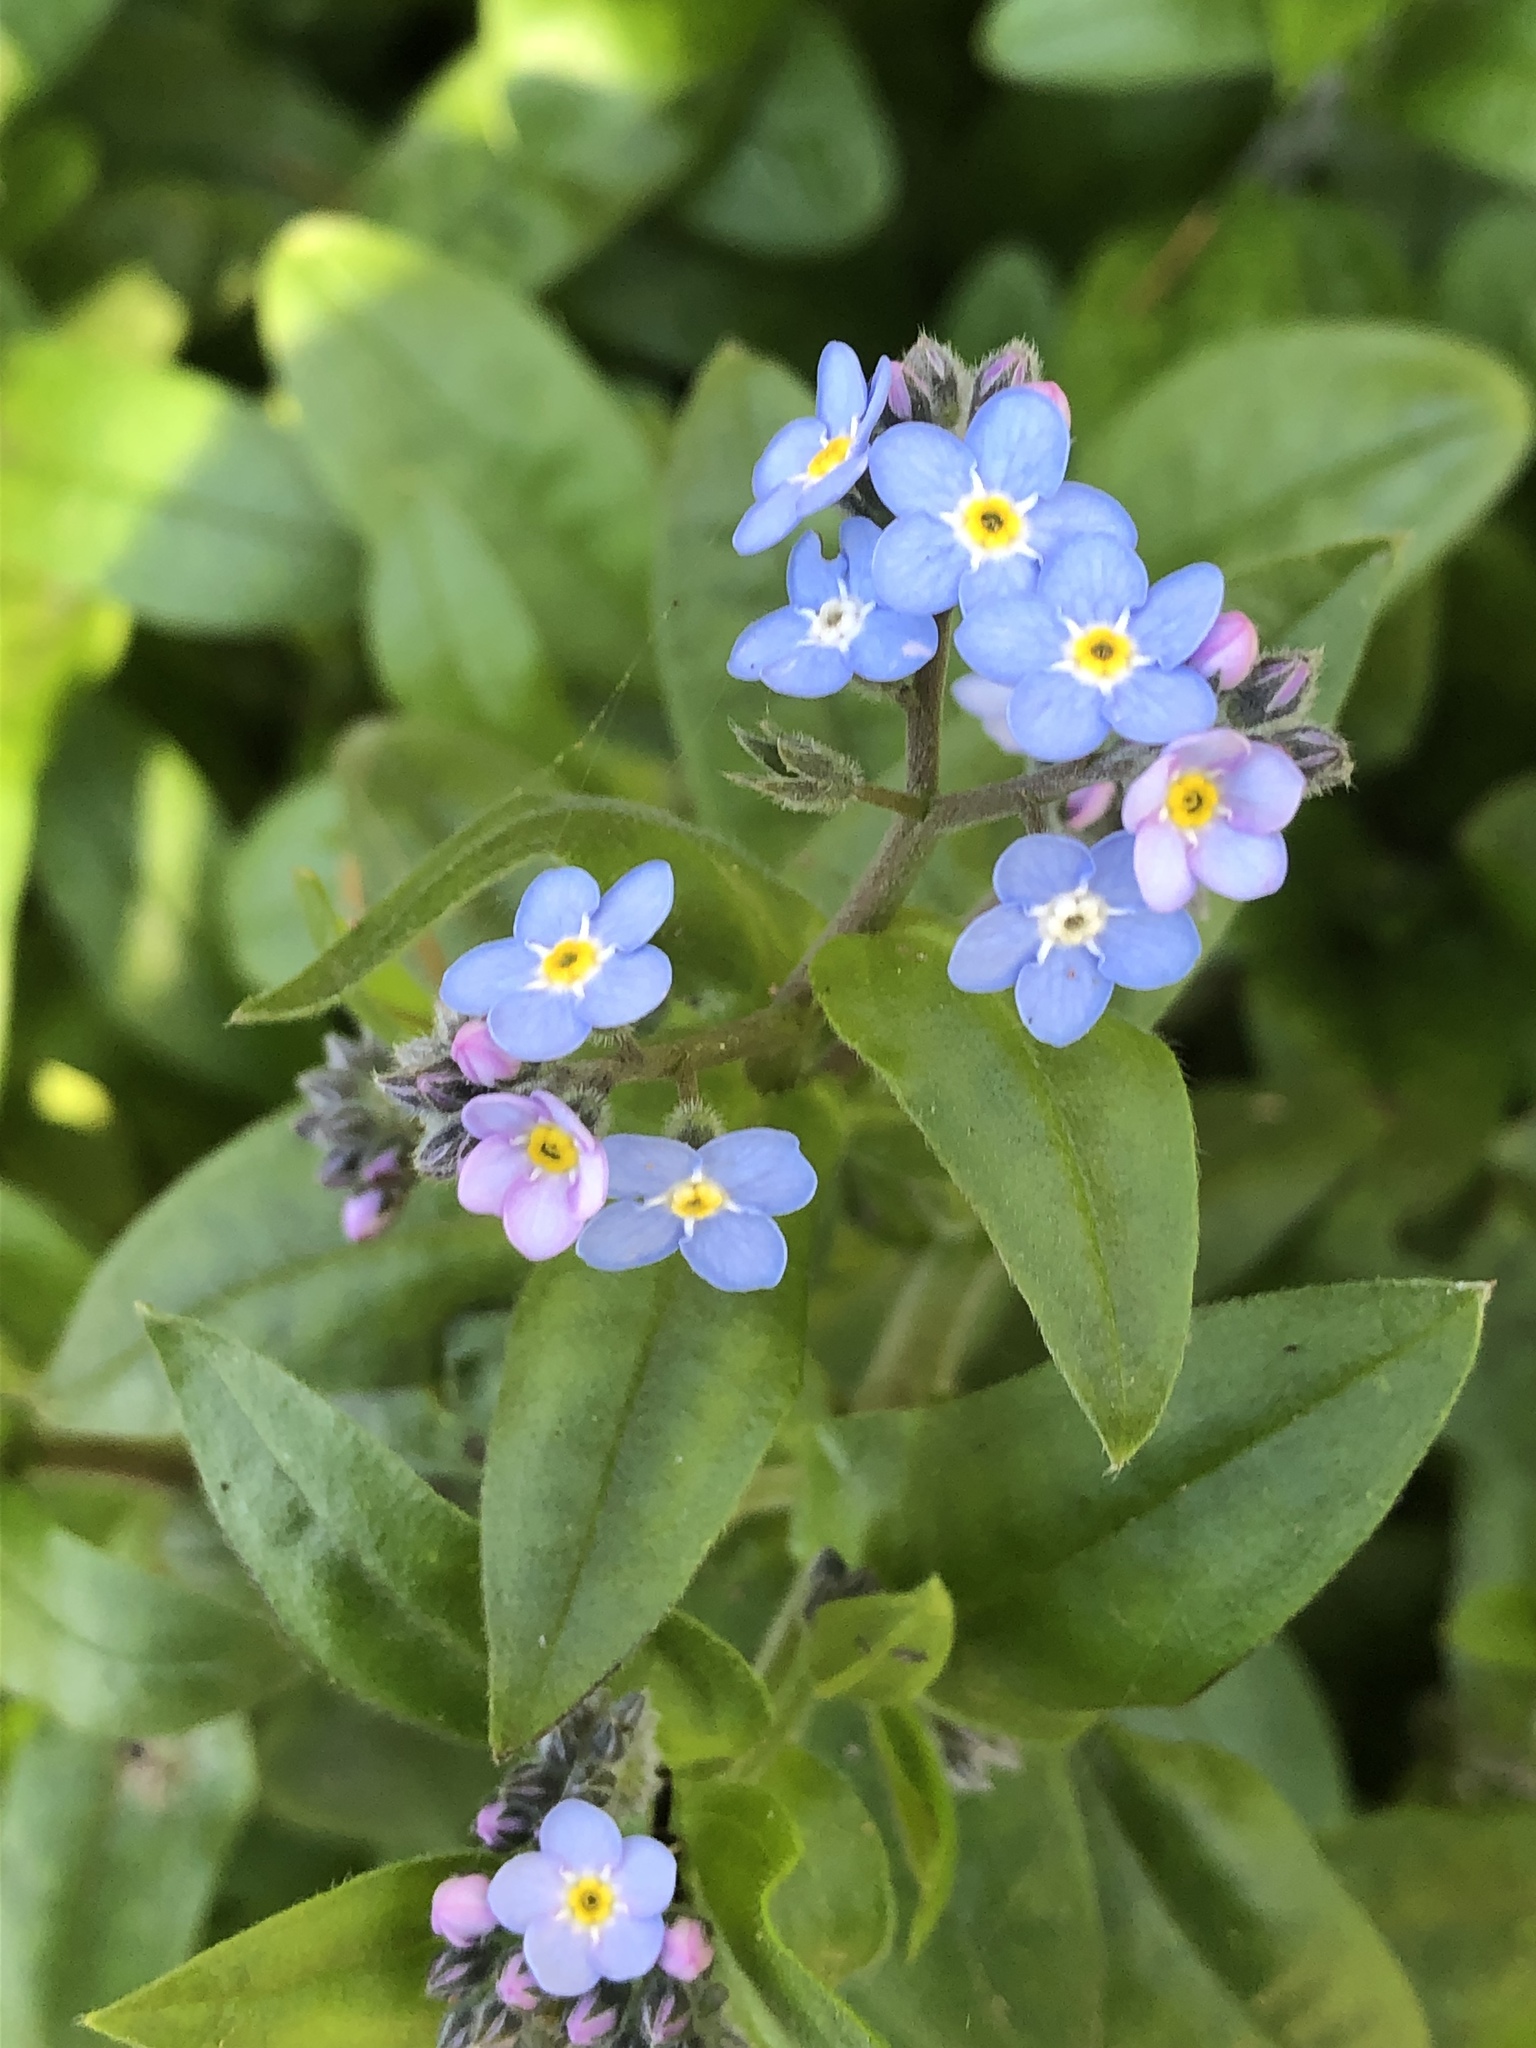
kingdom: Plantae
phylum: Tracheophyta
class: Magnoliopsida
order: Boraginales
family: Boraginaceae
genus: Myosotis
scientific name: Myosotis latifolia
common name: Broadleaf forget-me-not
